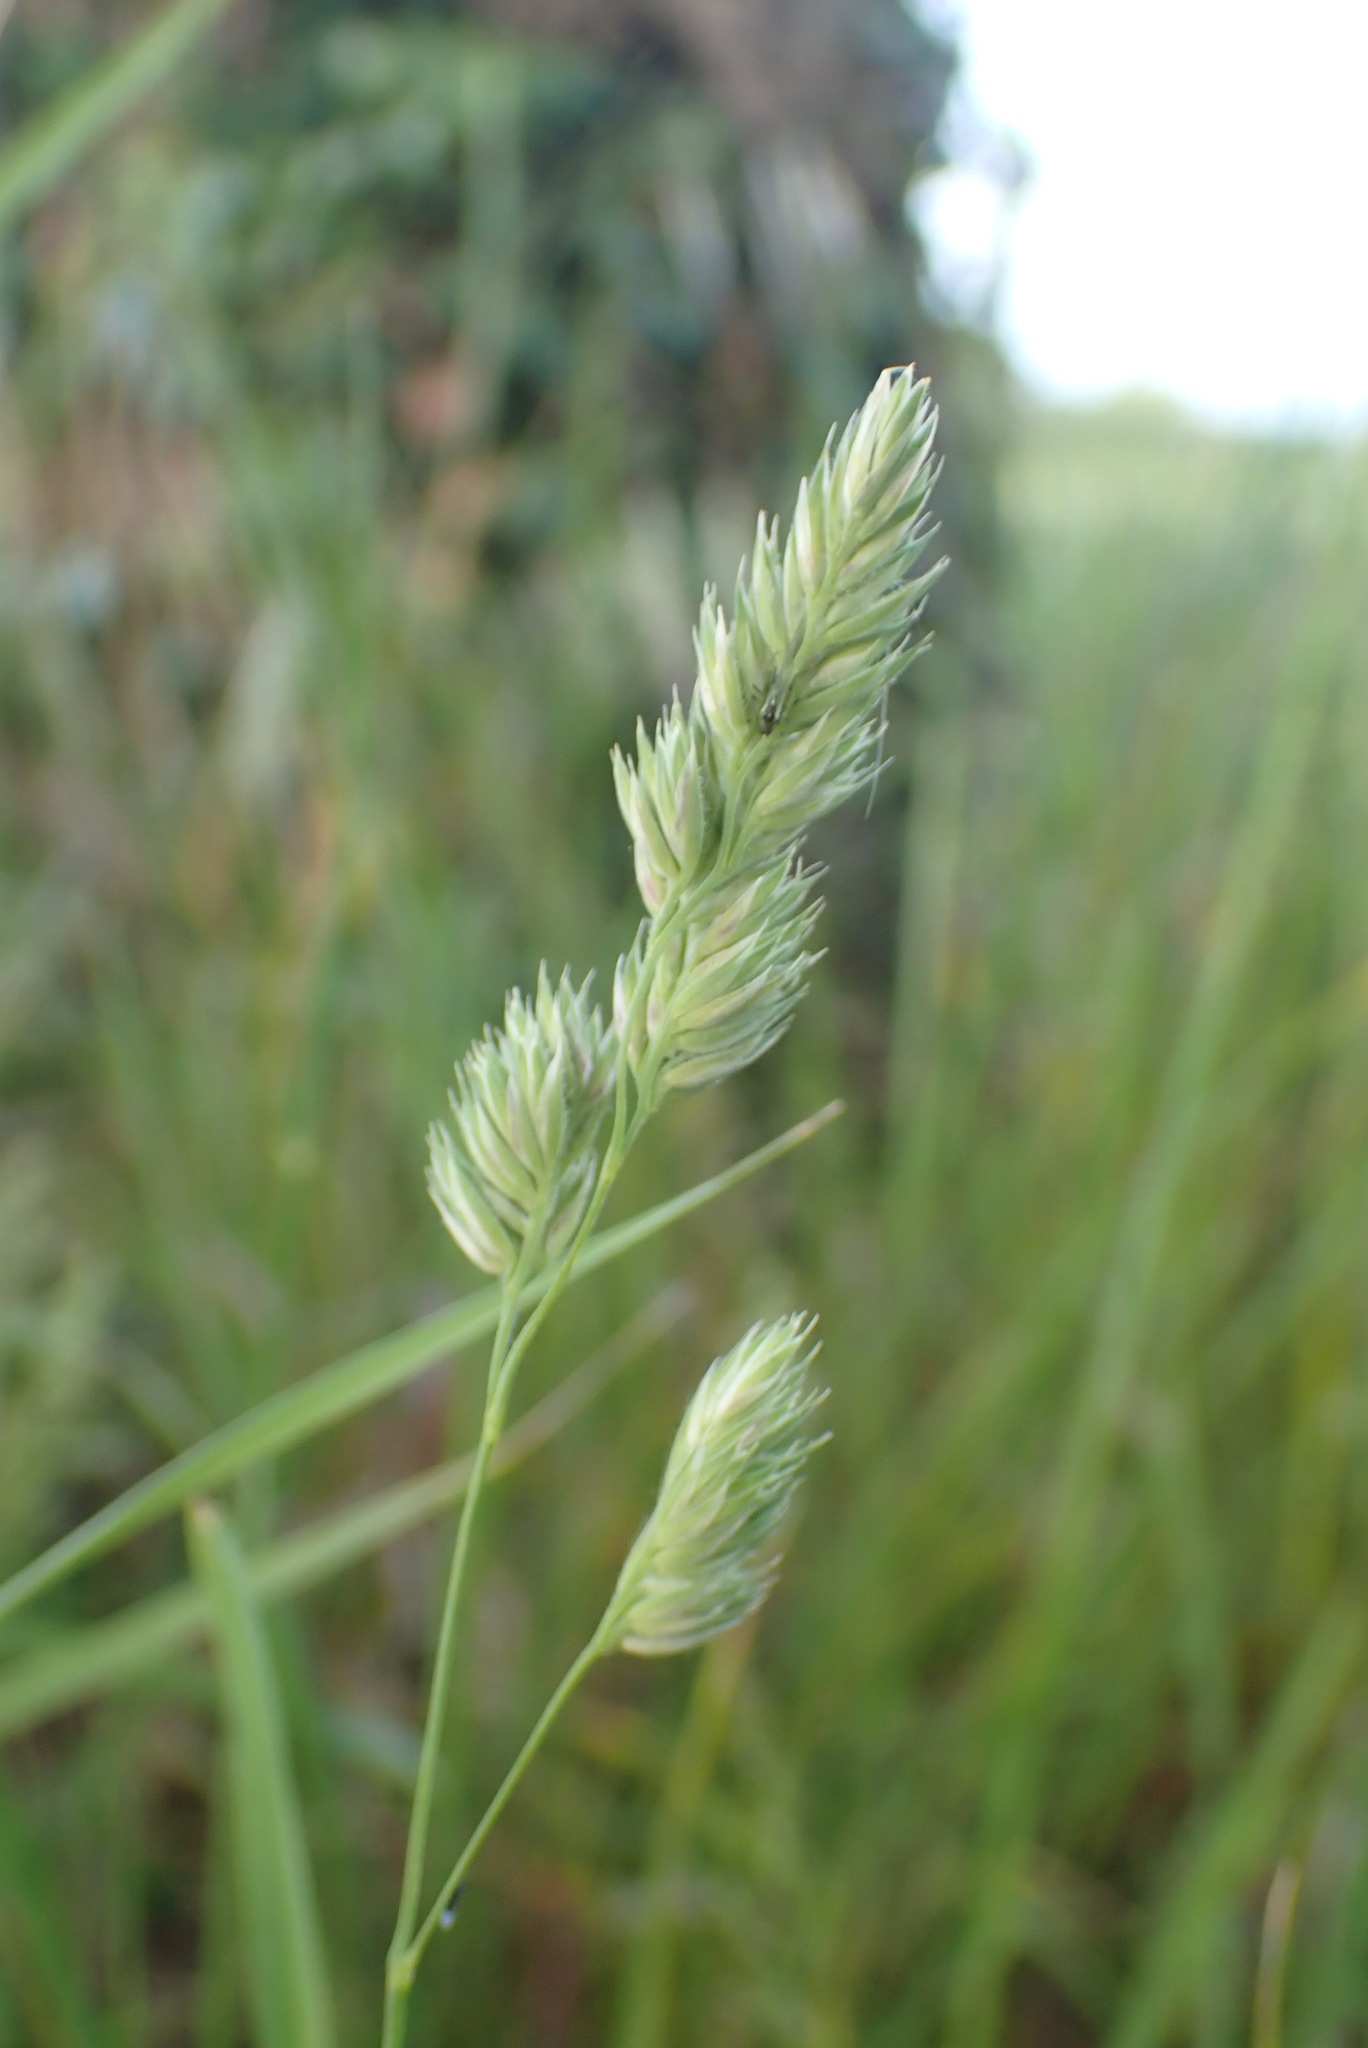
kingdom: Plantae
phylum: Tracheophyta
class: Liliopsida
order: Poales
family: Poaceae
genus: Dactylis
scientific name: Dactylis glomerata
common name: Orchardgrass
